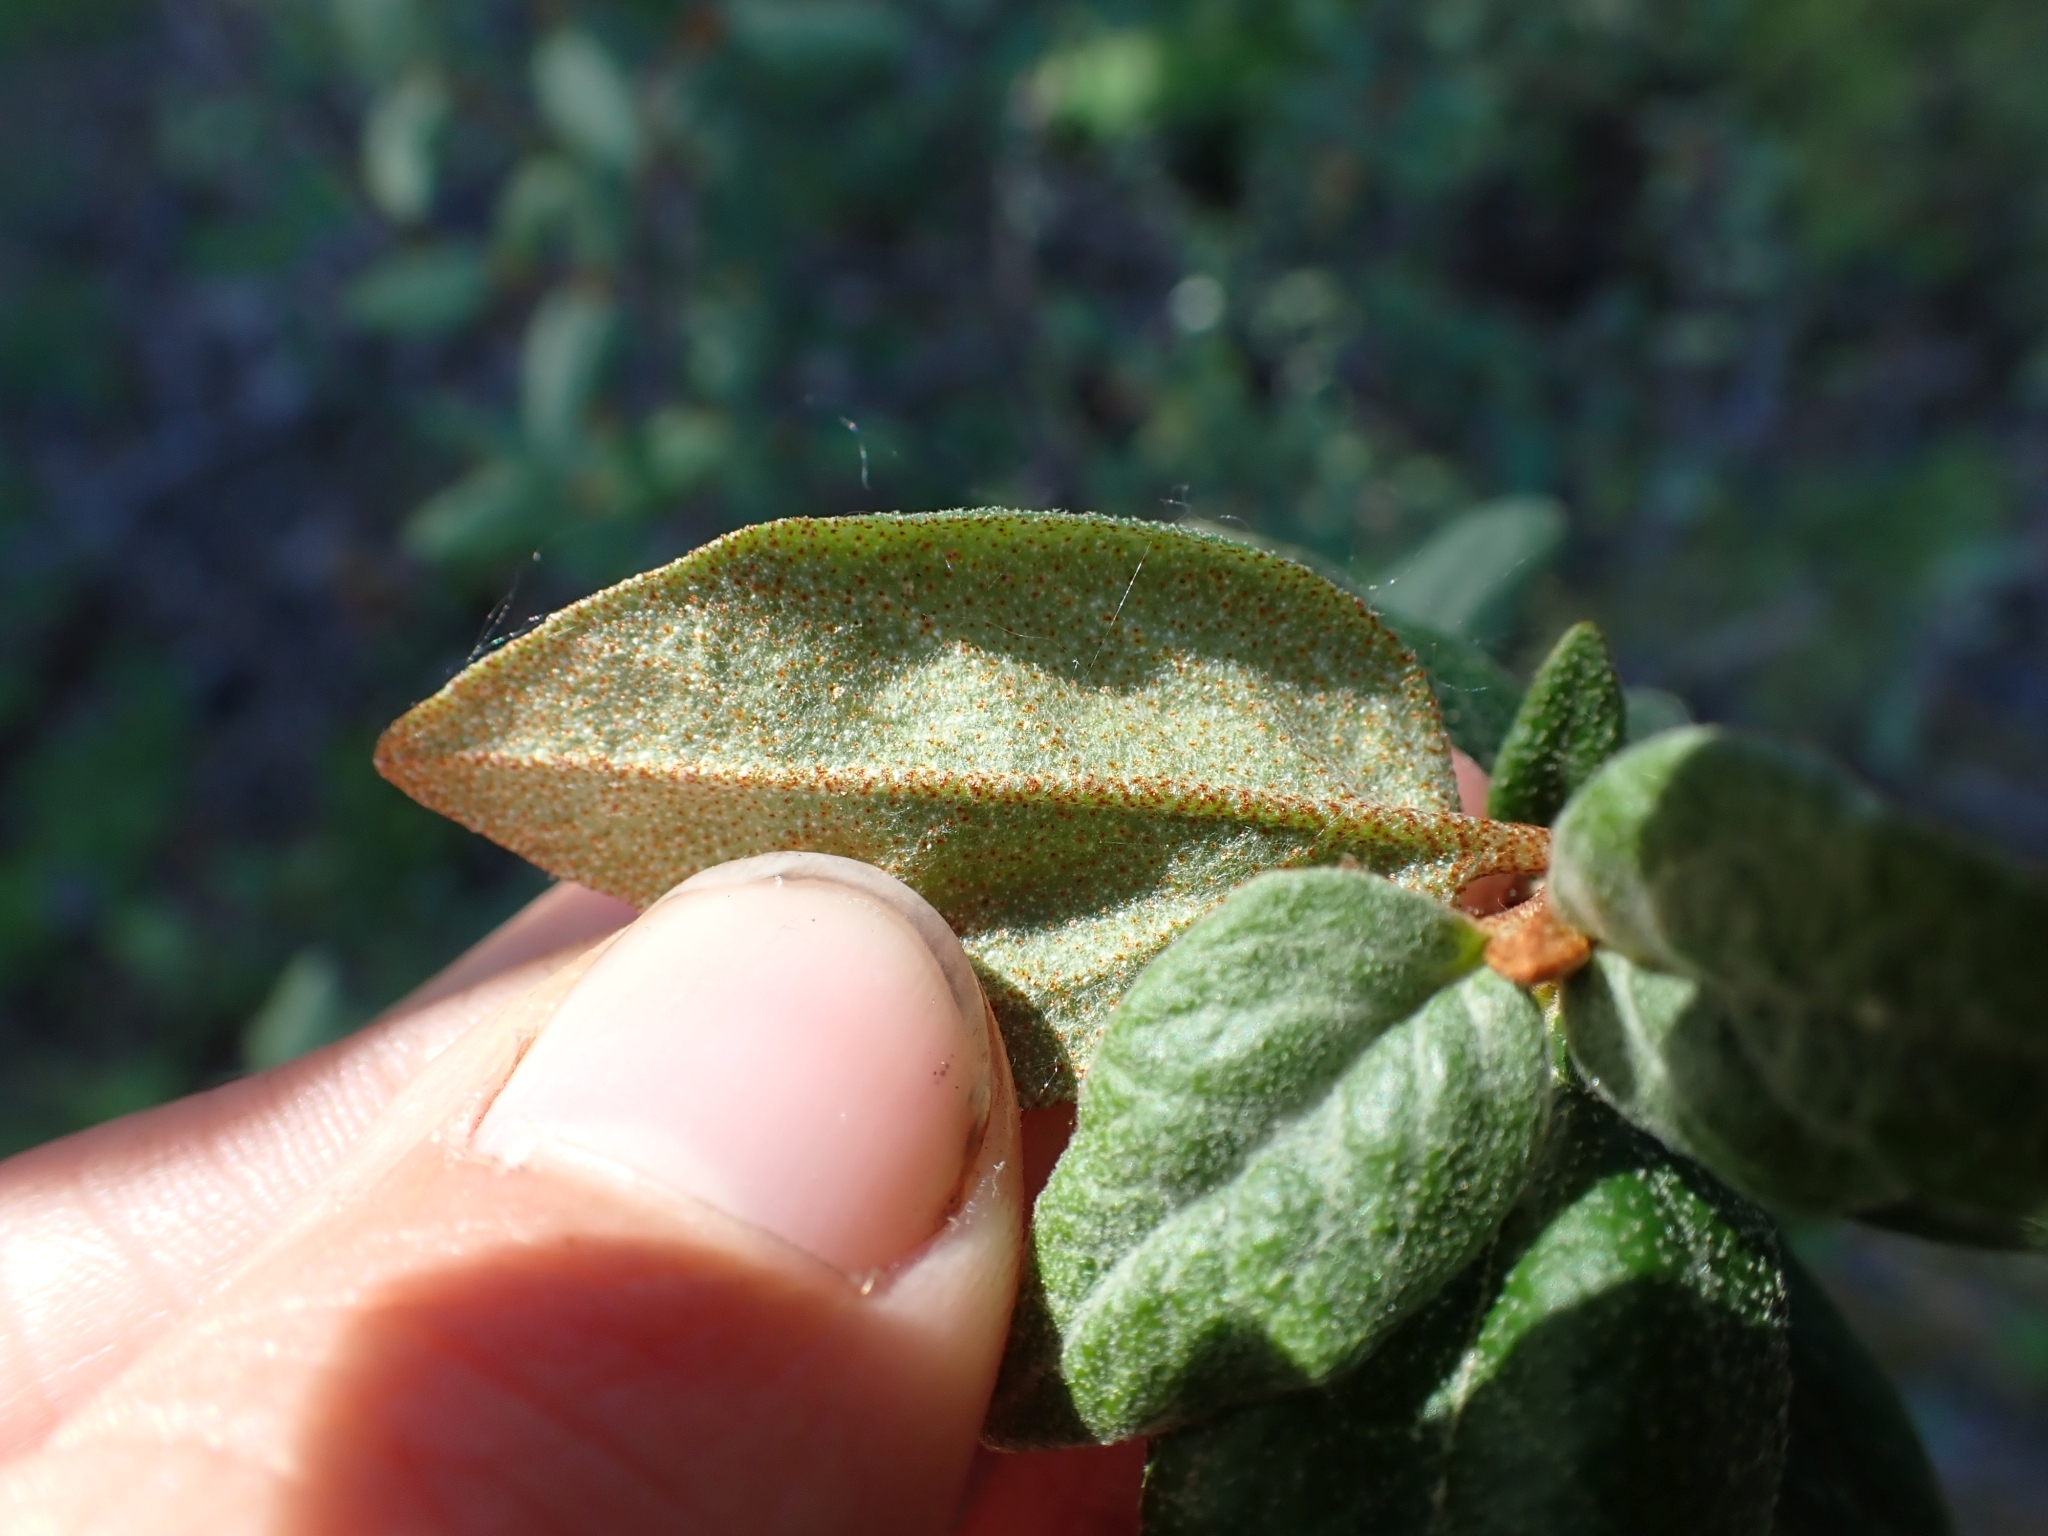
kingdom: Plantae
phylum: Tracheophyta
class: Magnoliopsida
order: Rosales
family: Elaeagnaceae
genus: Shepherdia
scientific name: Shepherdia canadensis
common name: Soapberry
